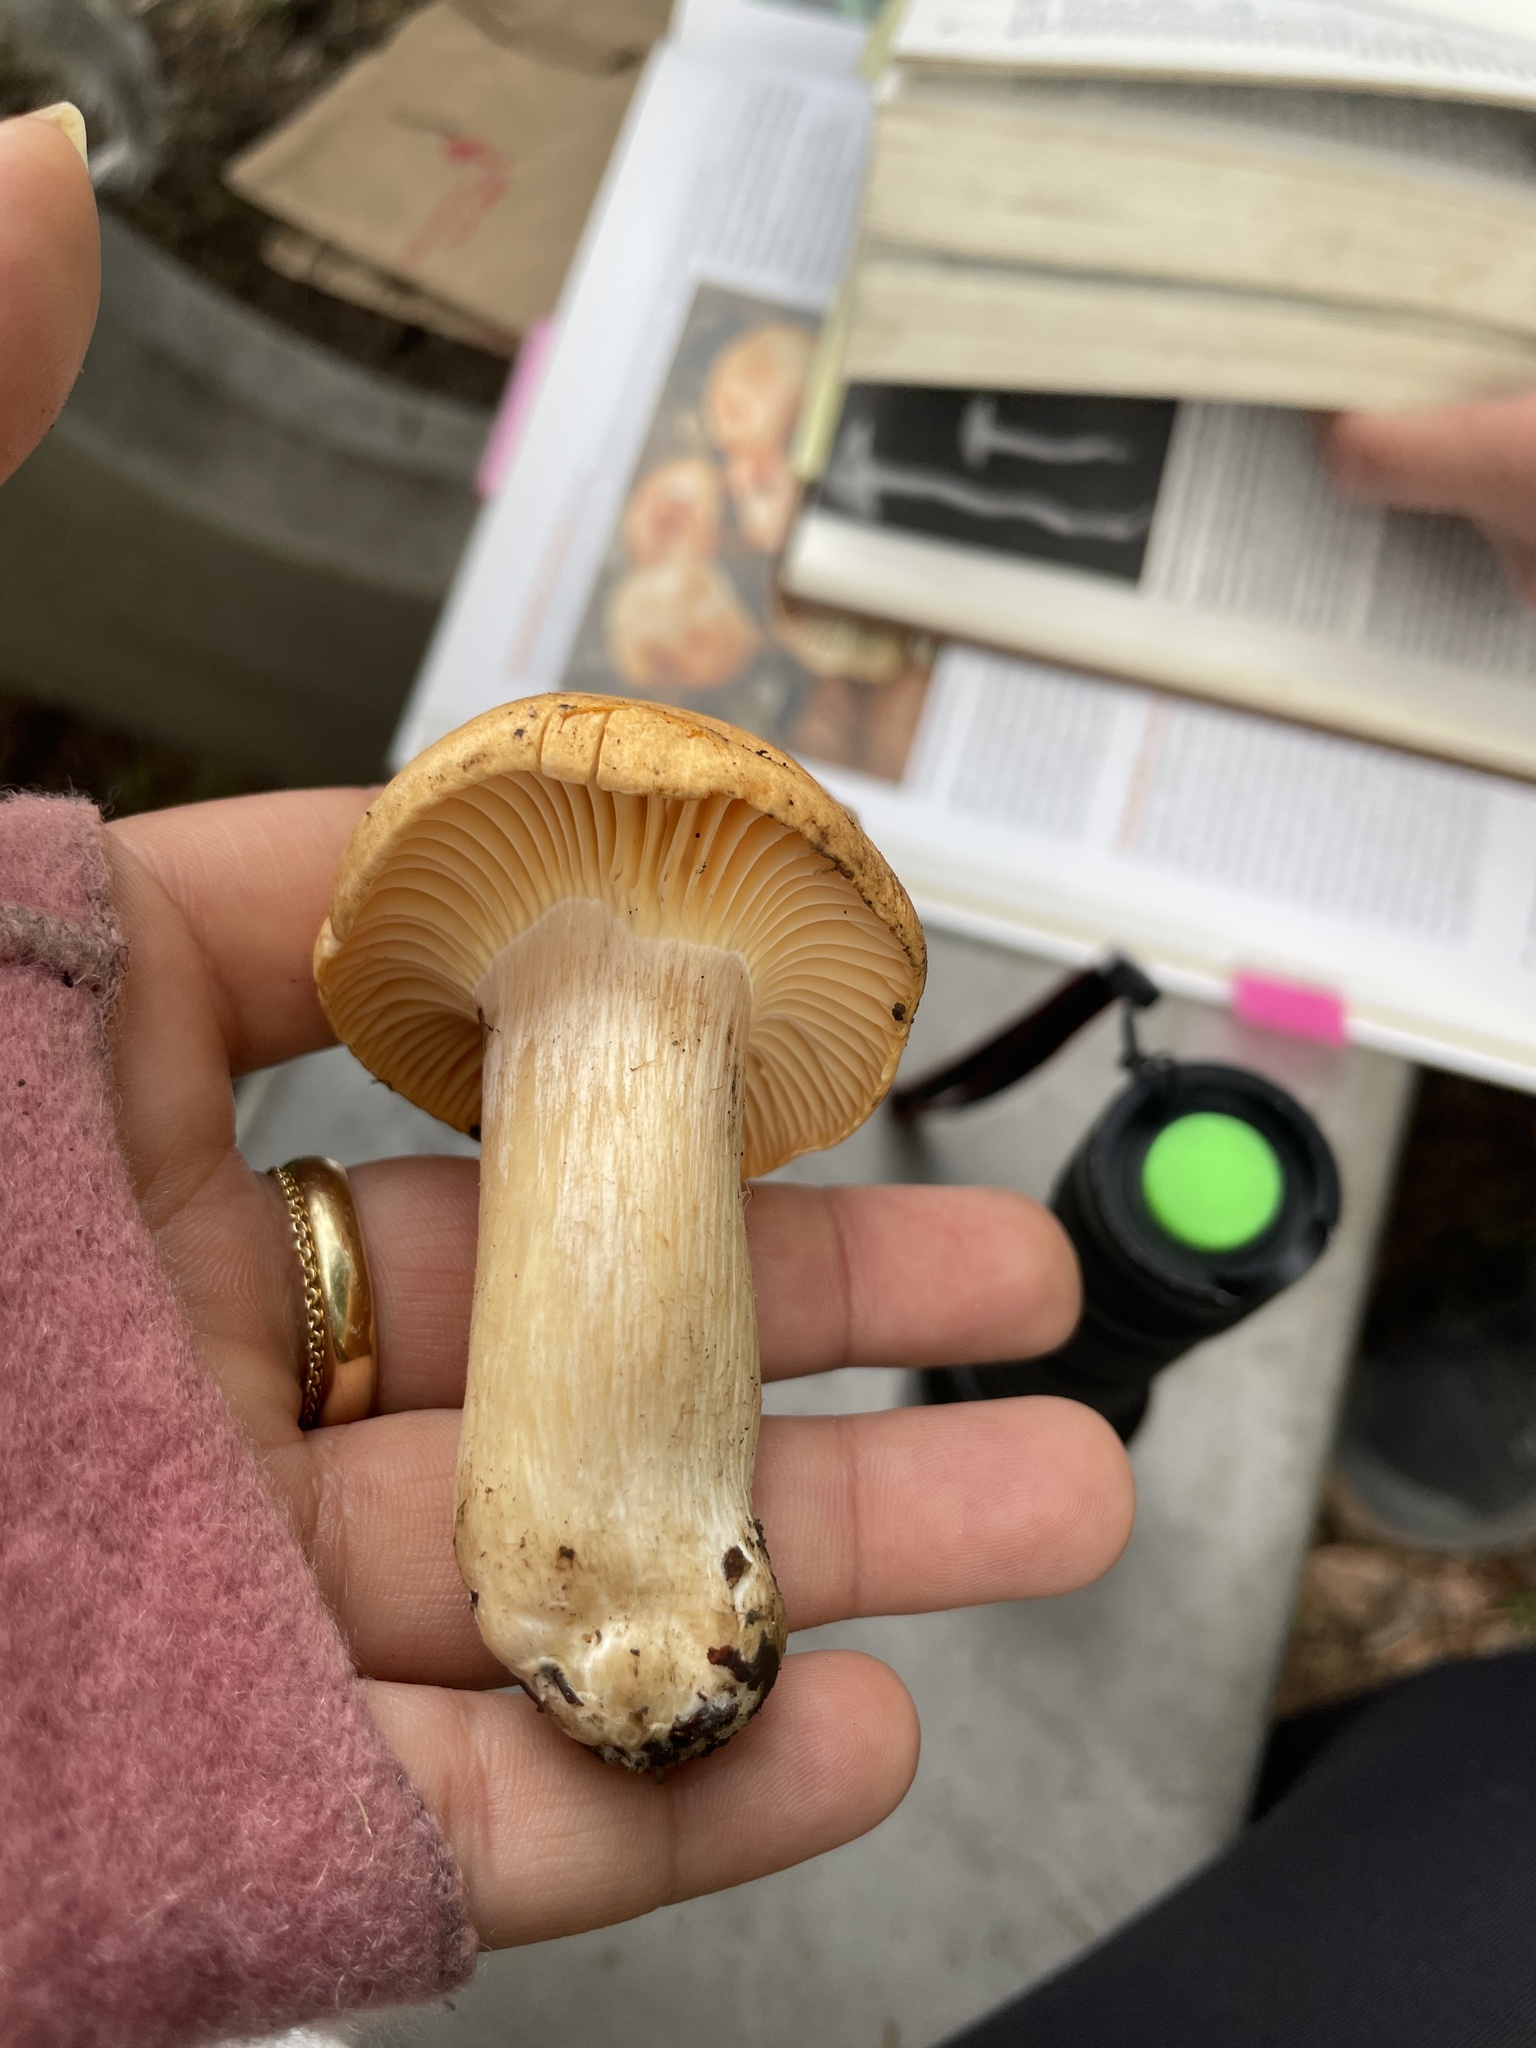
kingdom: Fungi
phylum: Basidiomycota
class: Agaricomycetes
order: Agaricales
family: Hygrophoraceae
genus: Cuphophyllus
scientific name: Cuphophyllus pratensis
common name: Meadow waxcap
